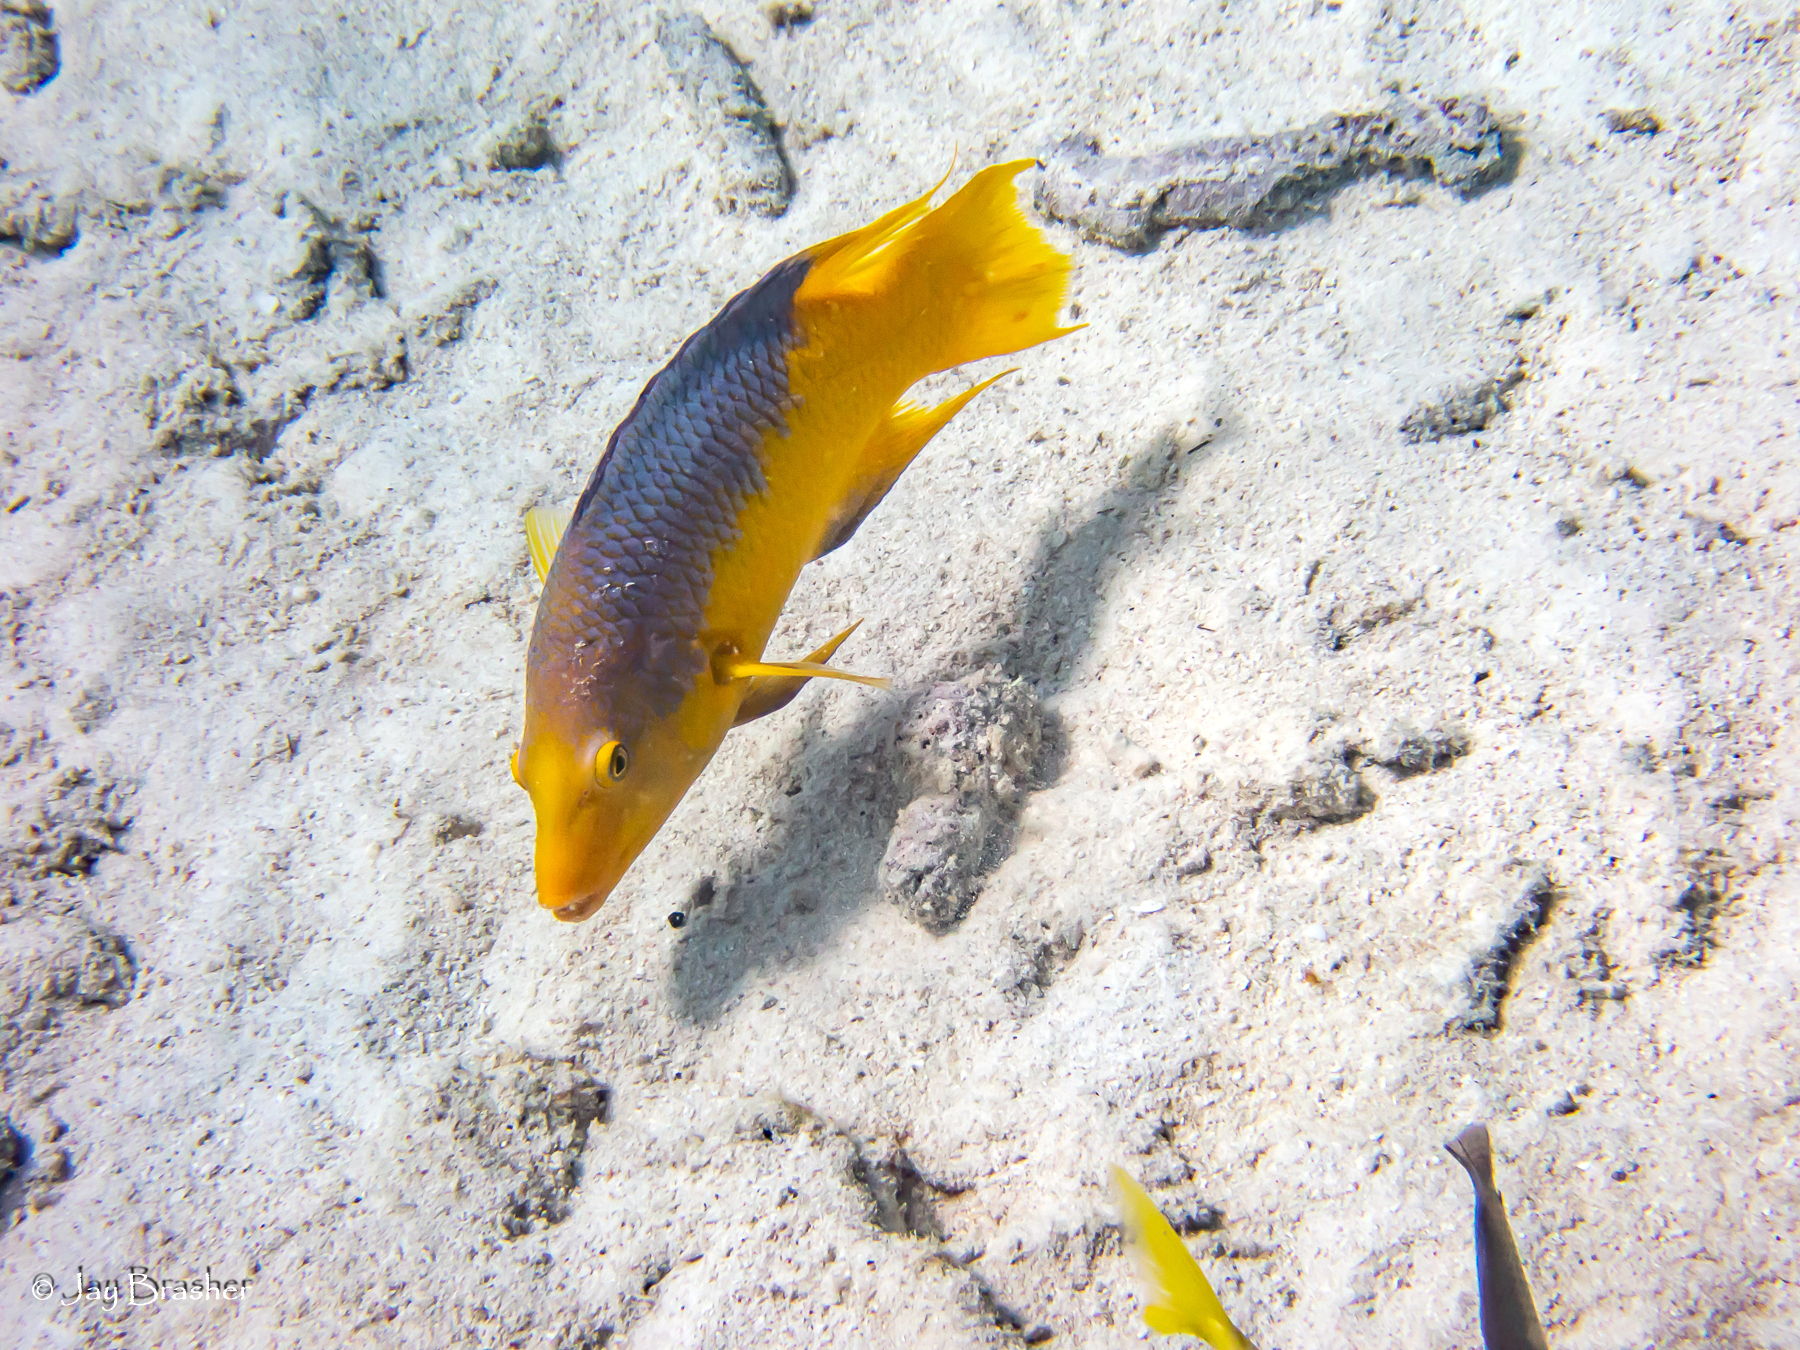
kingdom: Animalia
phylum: Chordata
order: Perciformes
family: Labridae
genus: Bodianus
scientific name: Bodianus rufus
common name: Spanish hogfish
